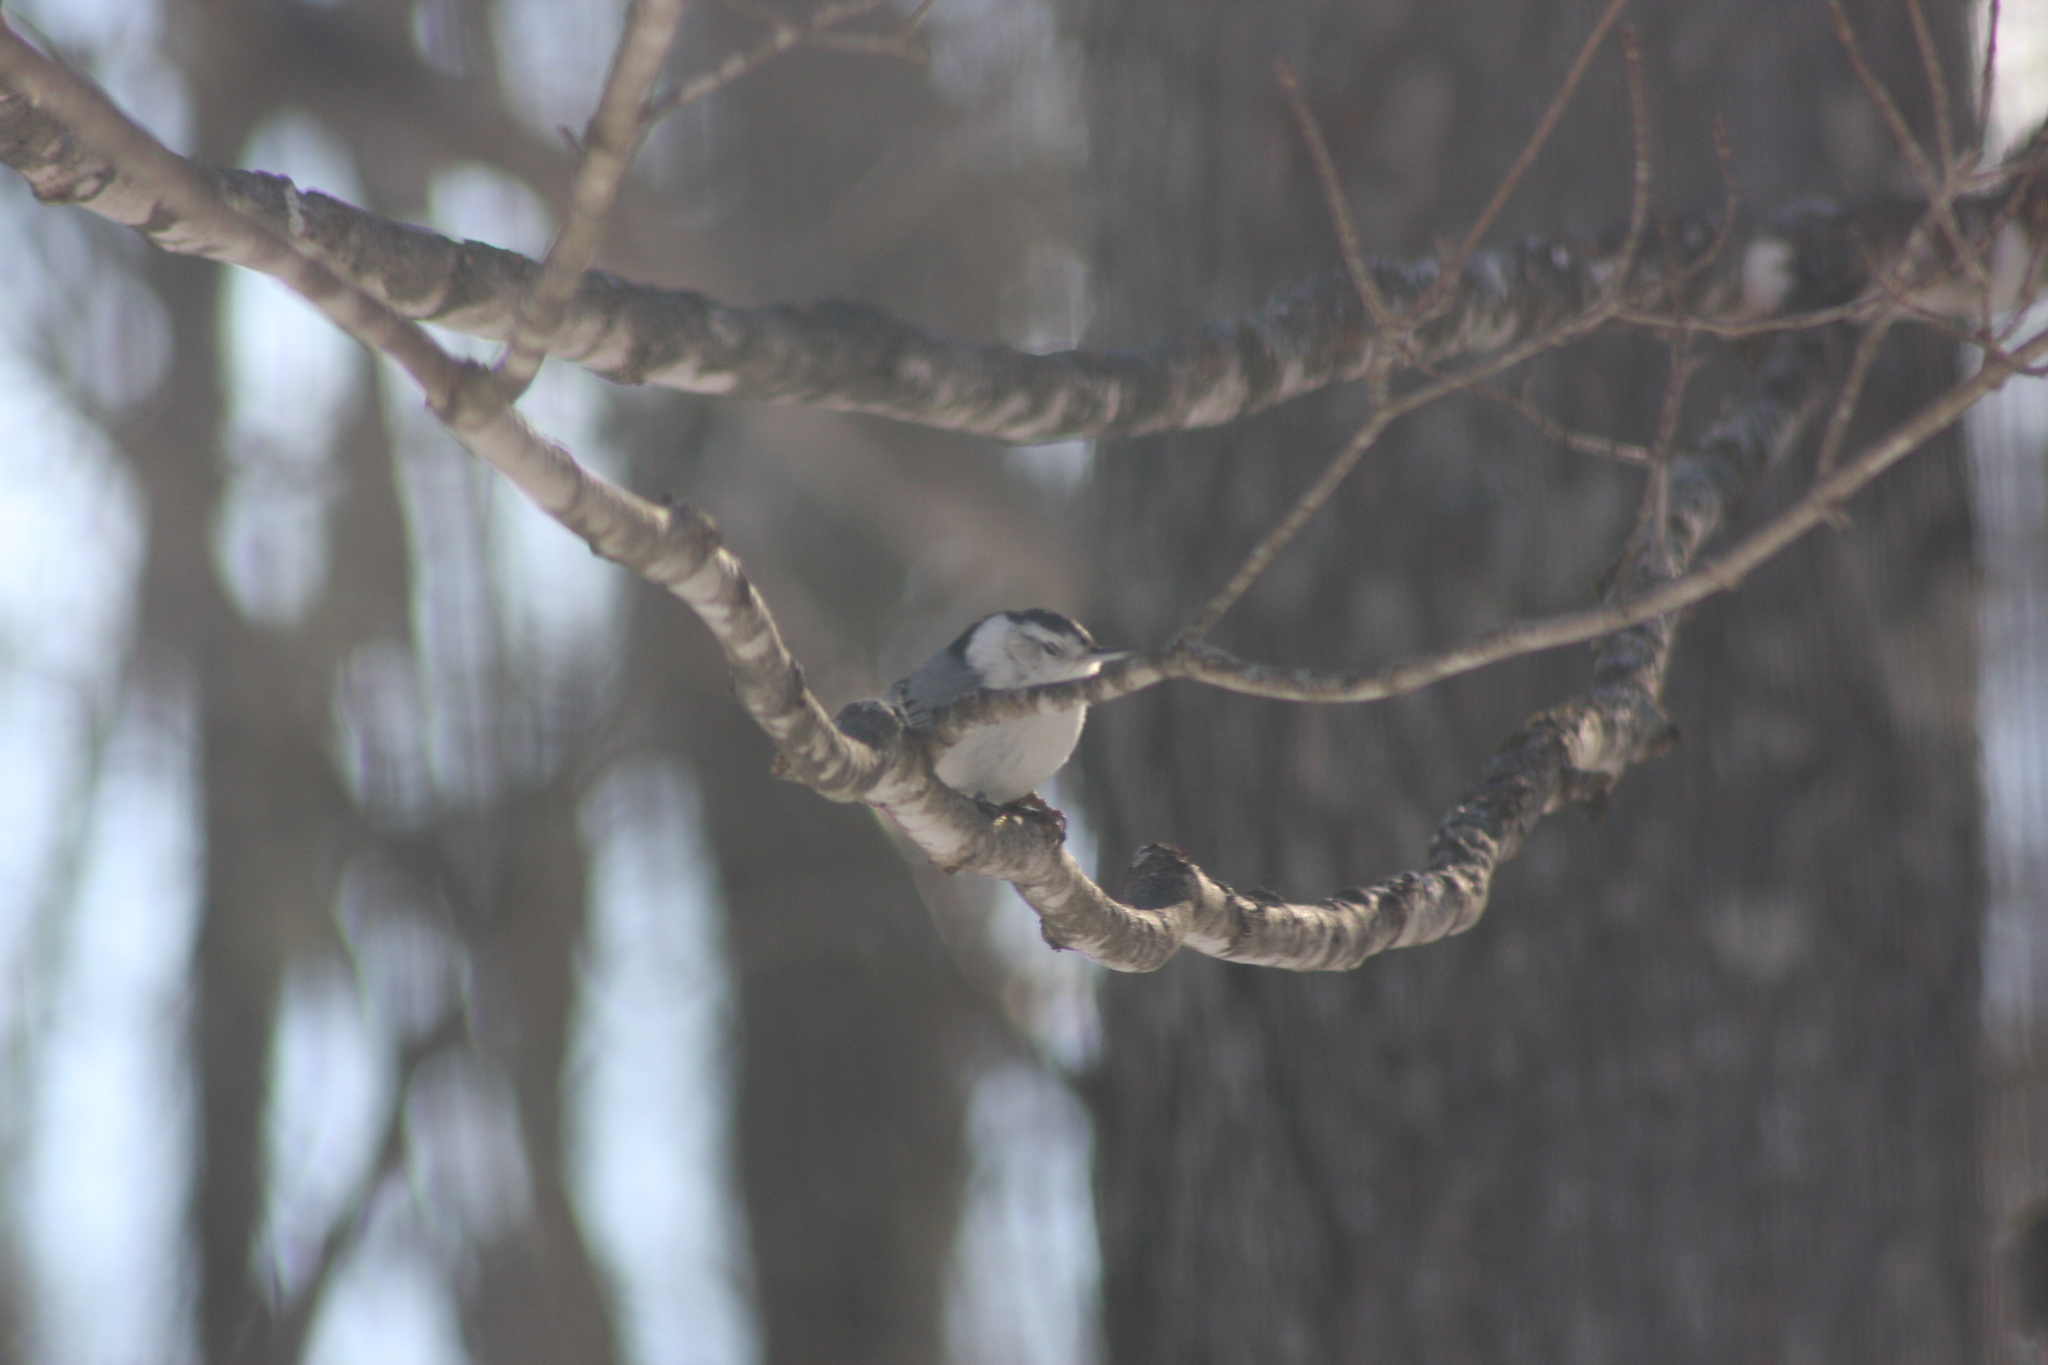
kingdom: Animalia
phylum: Chordata
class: Aves
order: Passeriformes
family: Sittidae
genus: Sitta
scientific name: Sitta carolinensis
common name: White-breasted nuthatch
